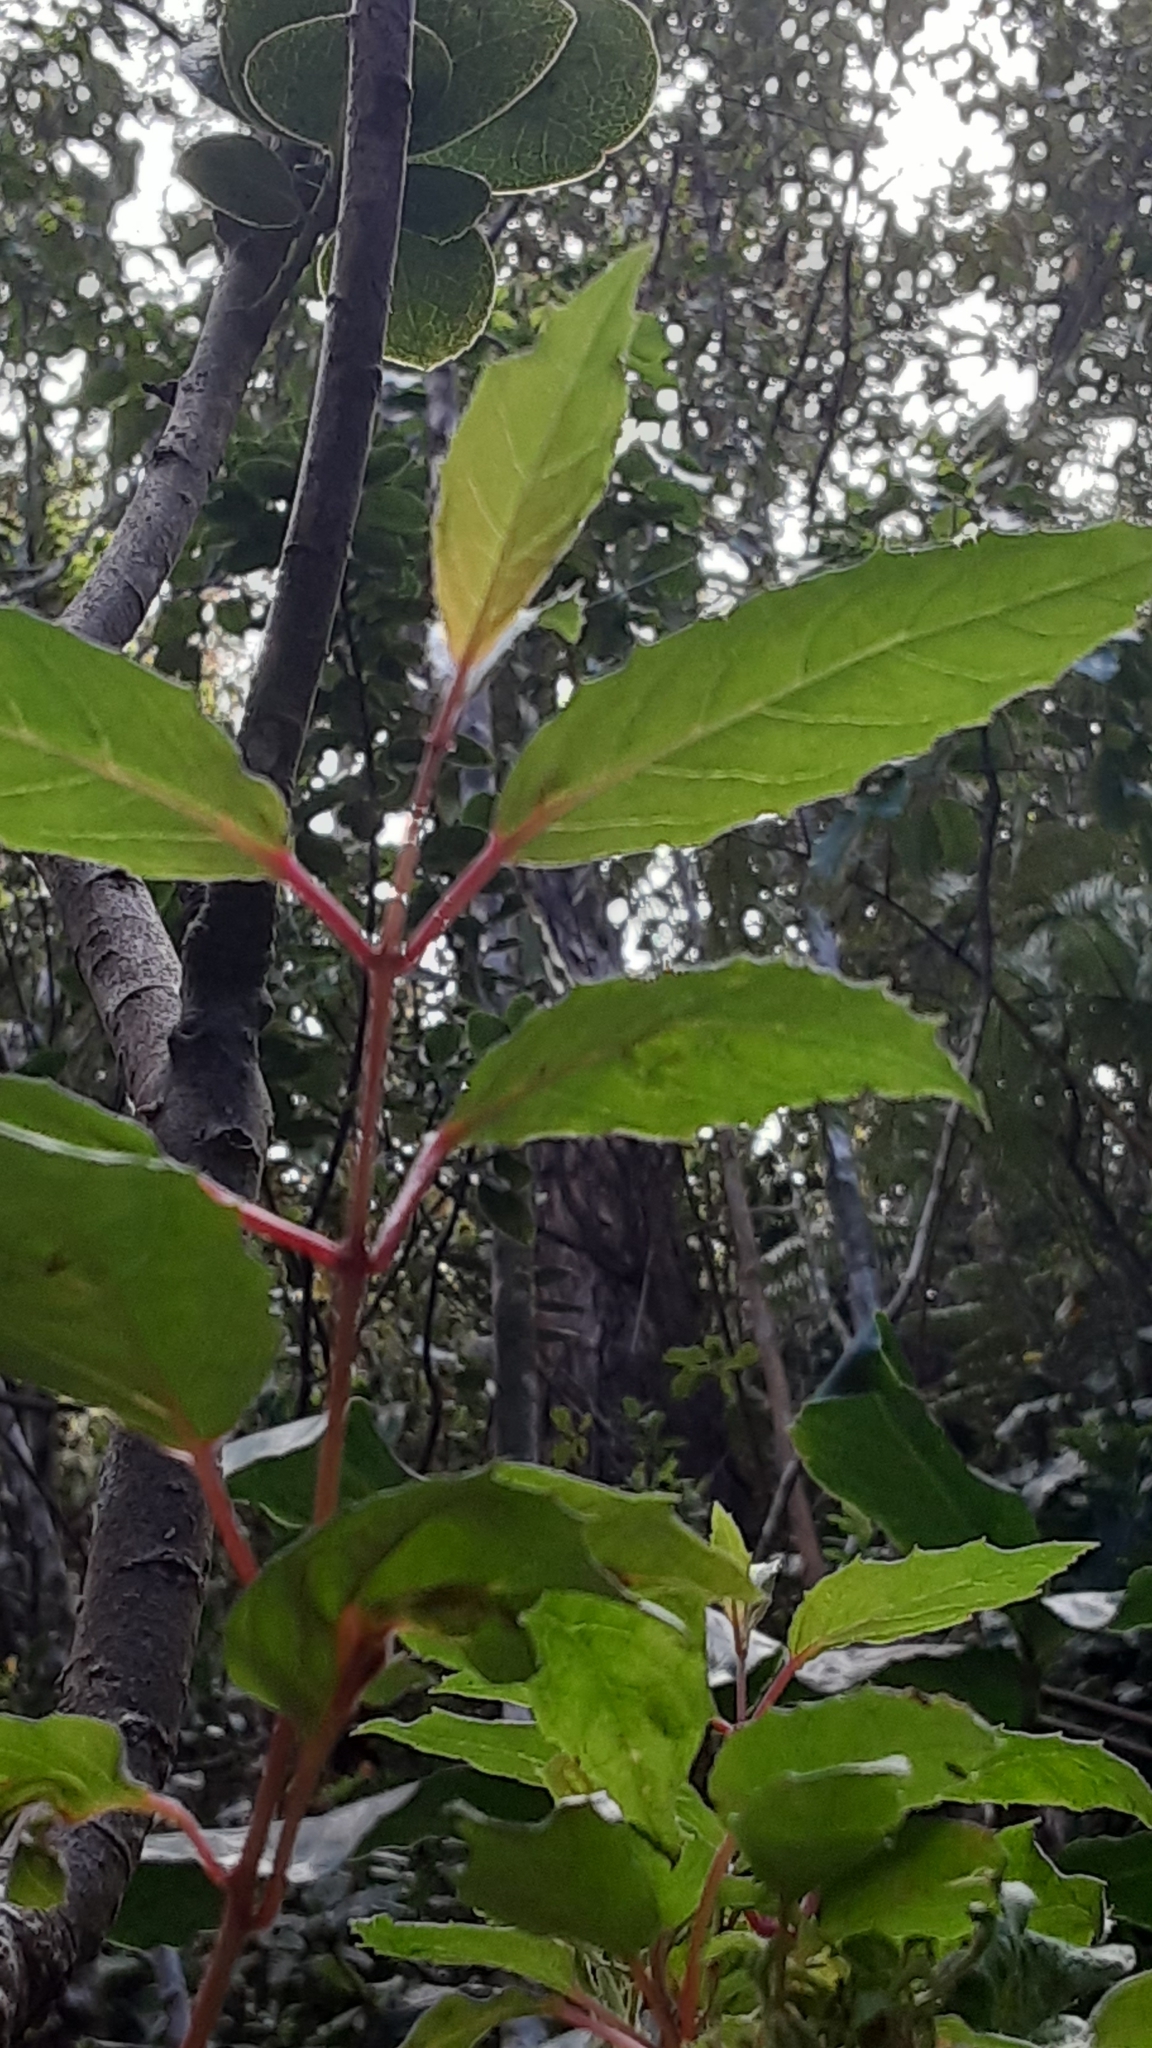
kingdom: Plantae
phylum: Tracheophyta
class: Magnoliopsida
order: Myrtales
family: Onagraceae
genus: Fuchsia
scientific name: Fuchsia magellanica
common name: Hardy fuchsia
